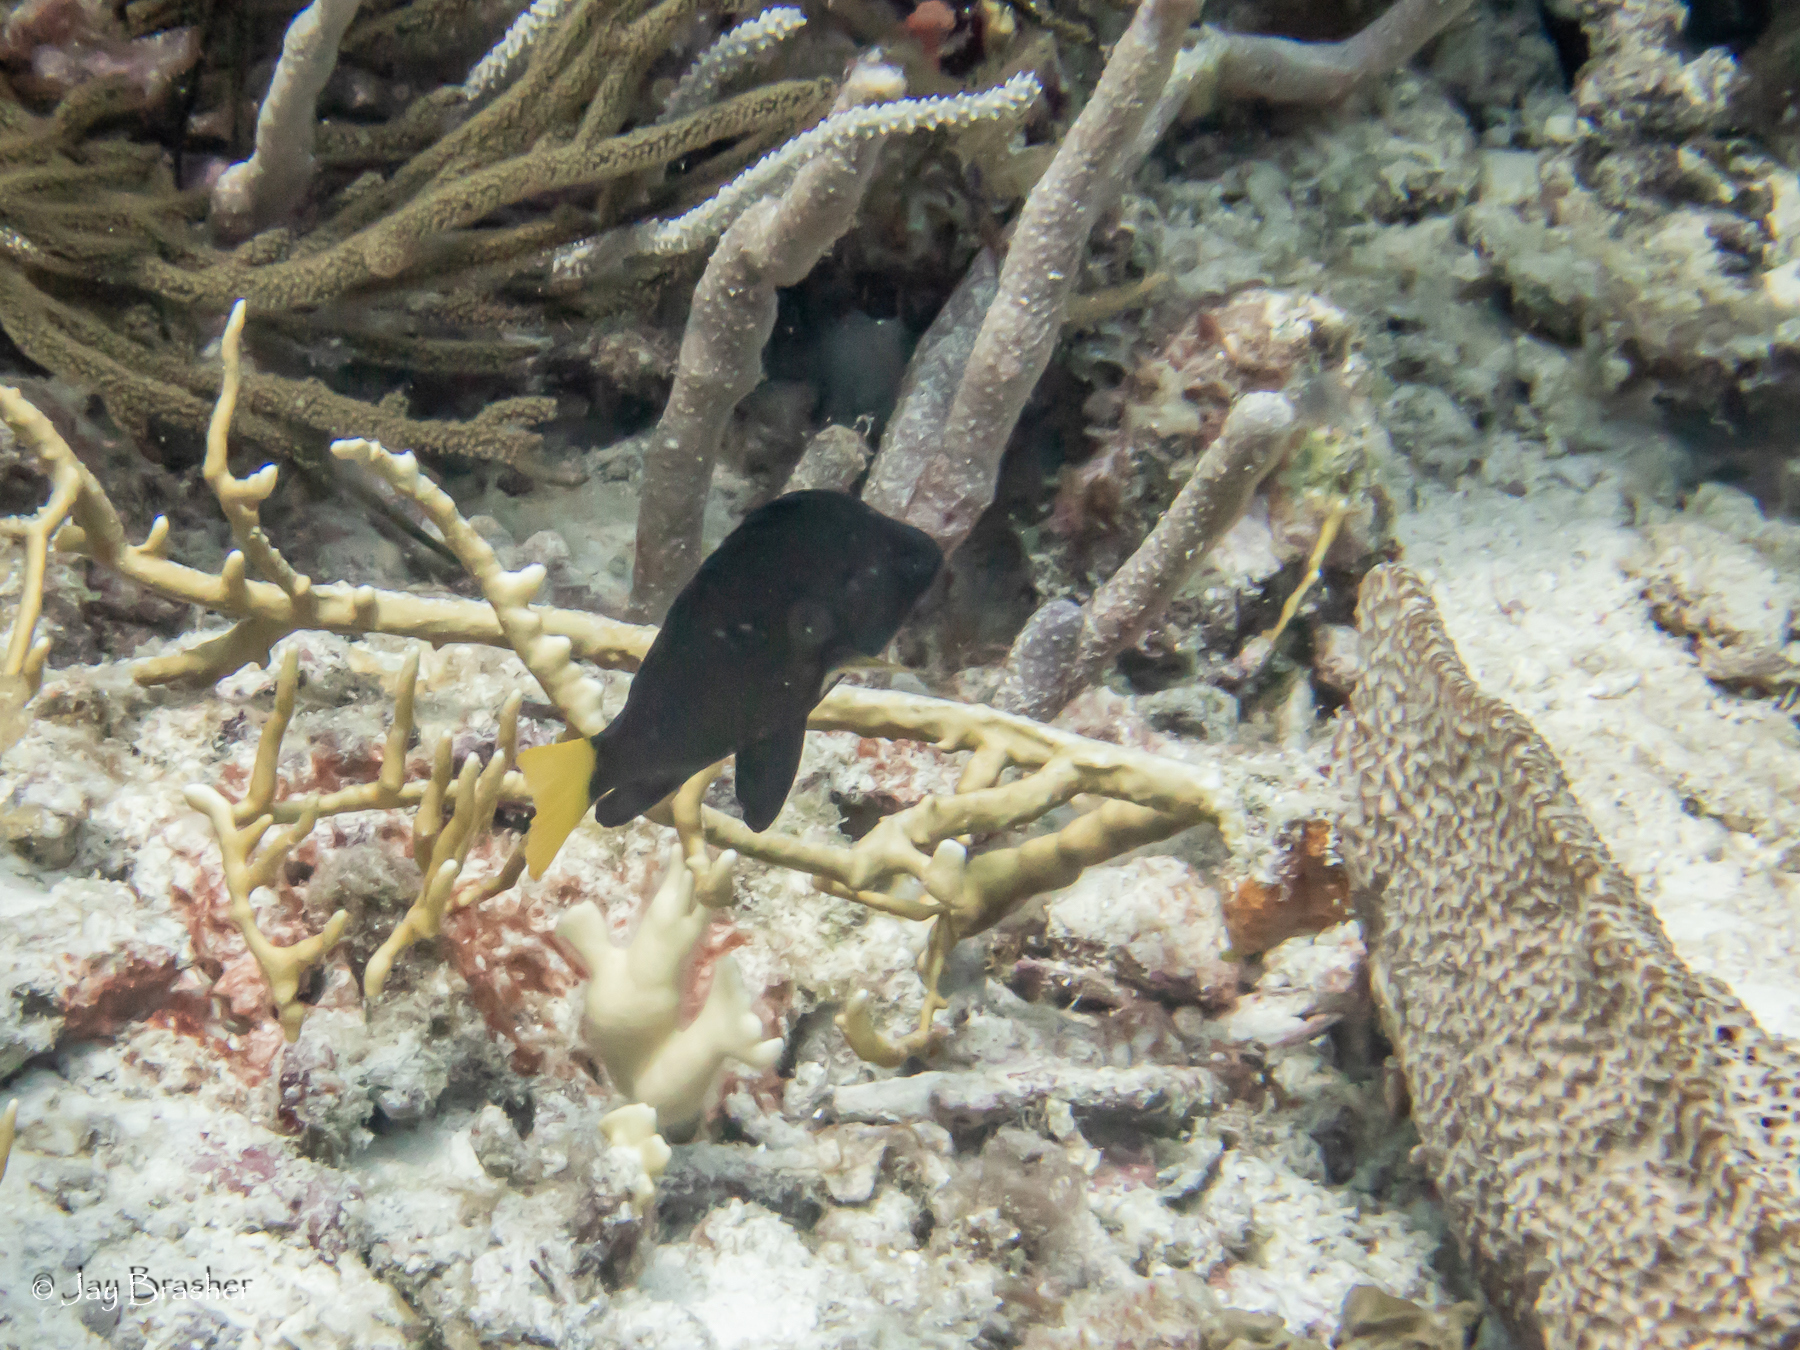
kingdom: Animalia
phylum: Chordata
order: Perciformes
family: Serranidae
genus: Hypoplectrus
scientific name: Hypoplectrus chlorurus
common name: Yellowtail hamlet
